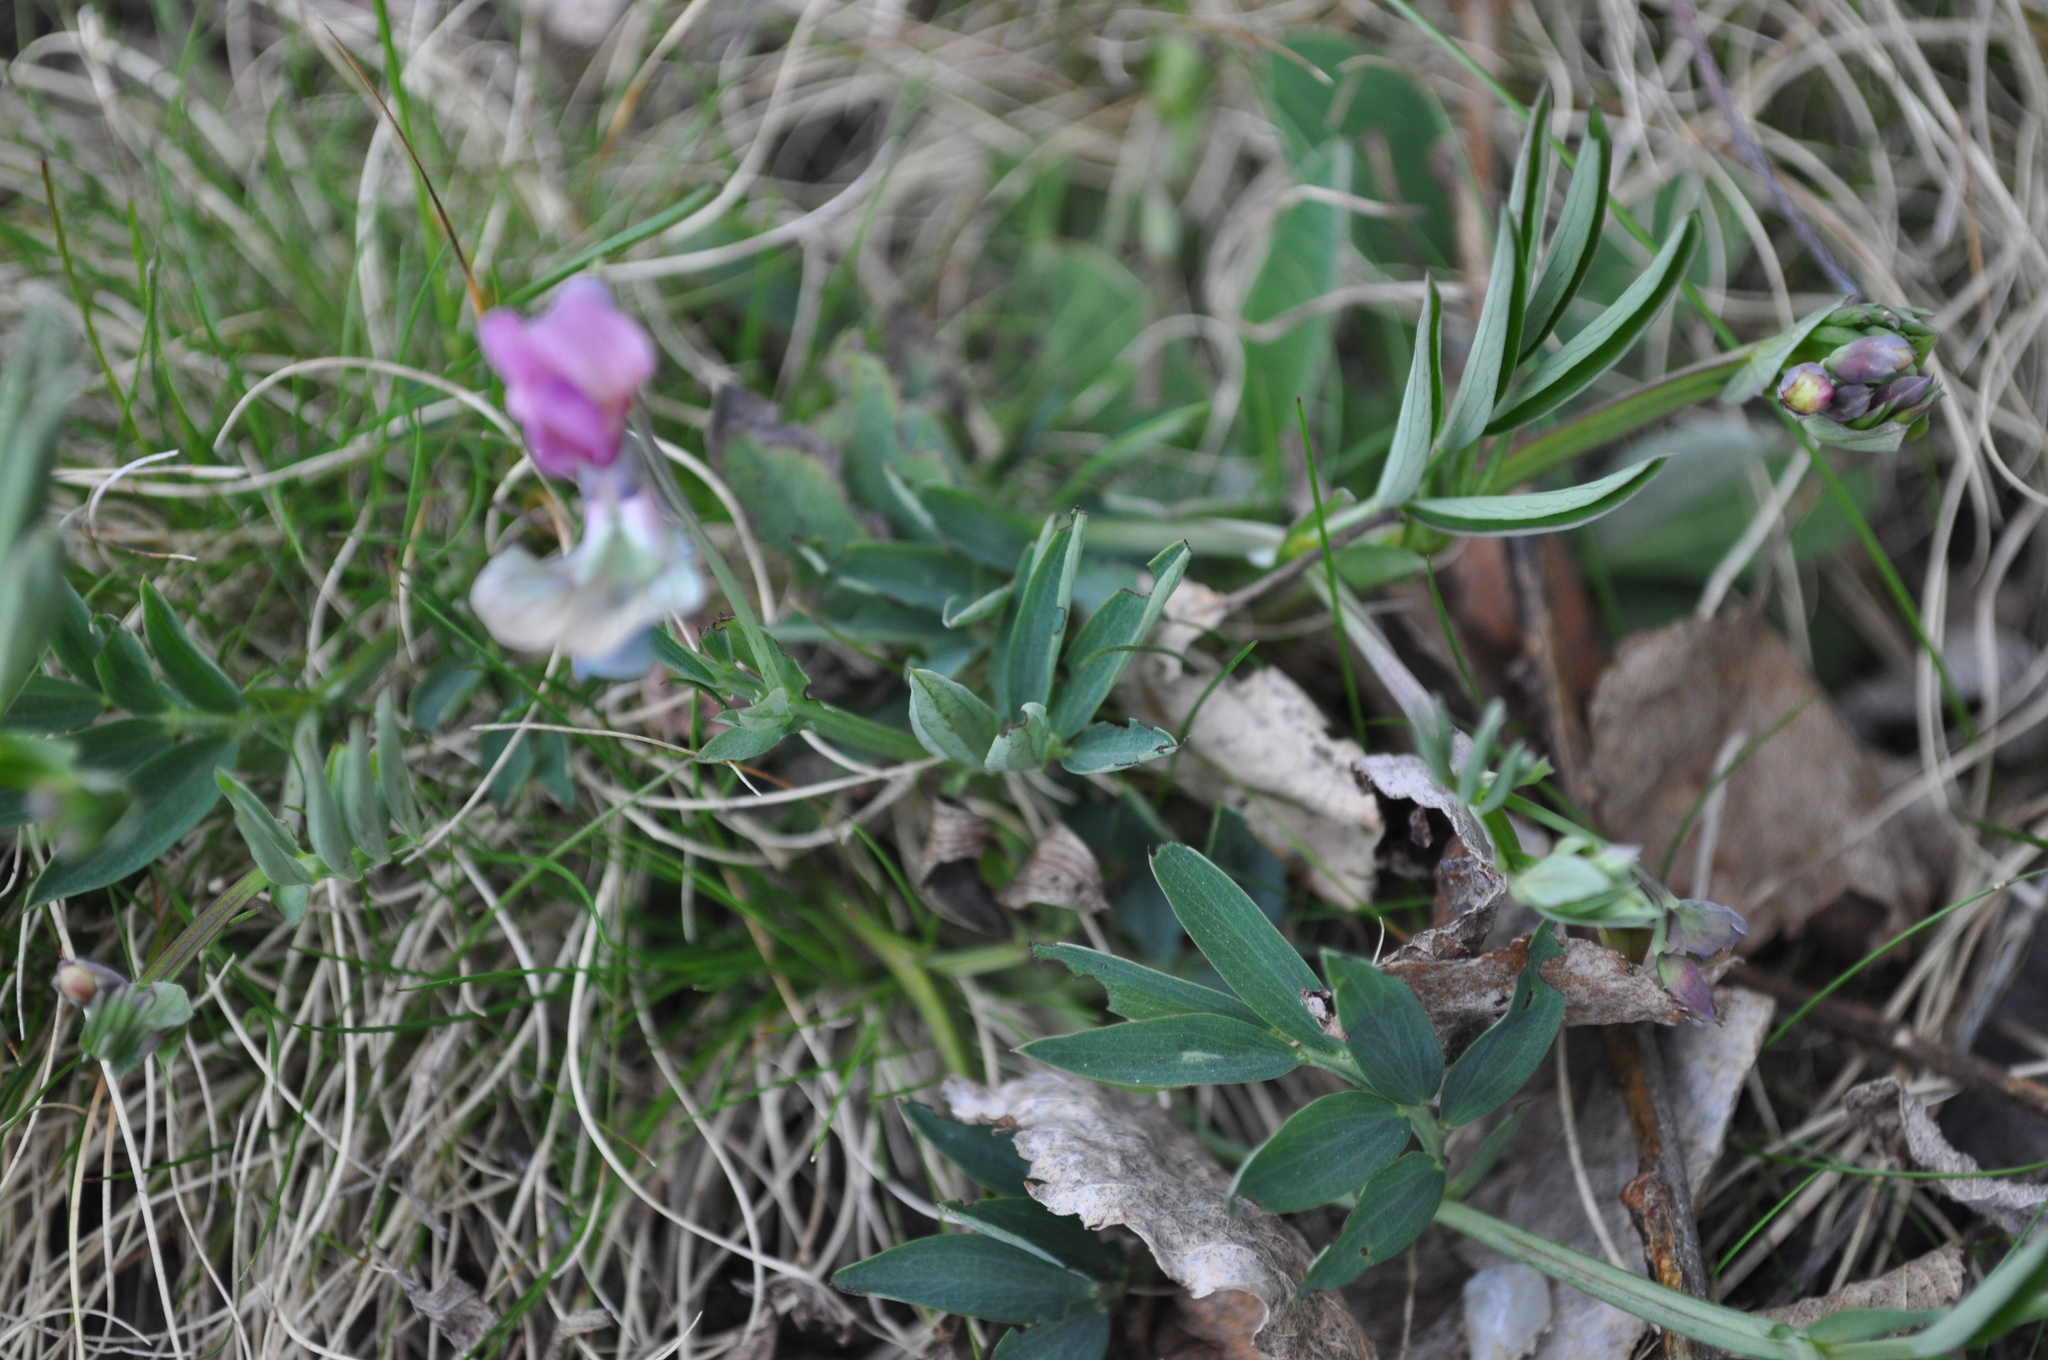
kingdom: Plantae
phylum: Tracheophyta
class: Magnoliopsida
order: Fabales
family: Fabaceae
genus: Lathyrus
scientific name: Lathyrus linifolius
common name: Bitter-vetch
